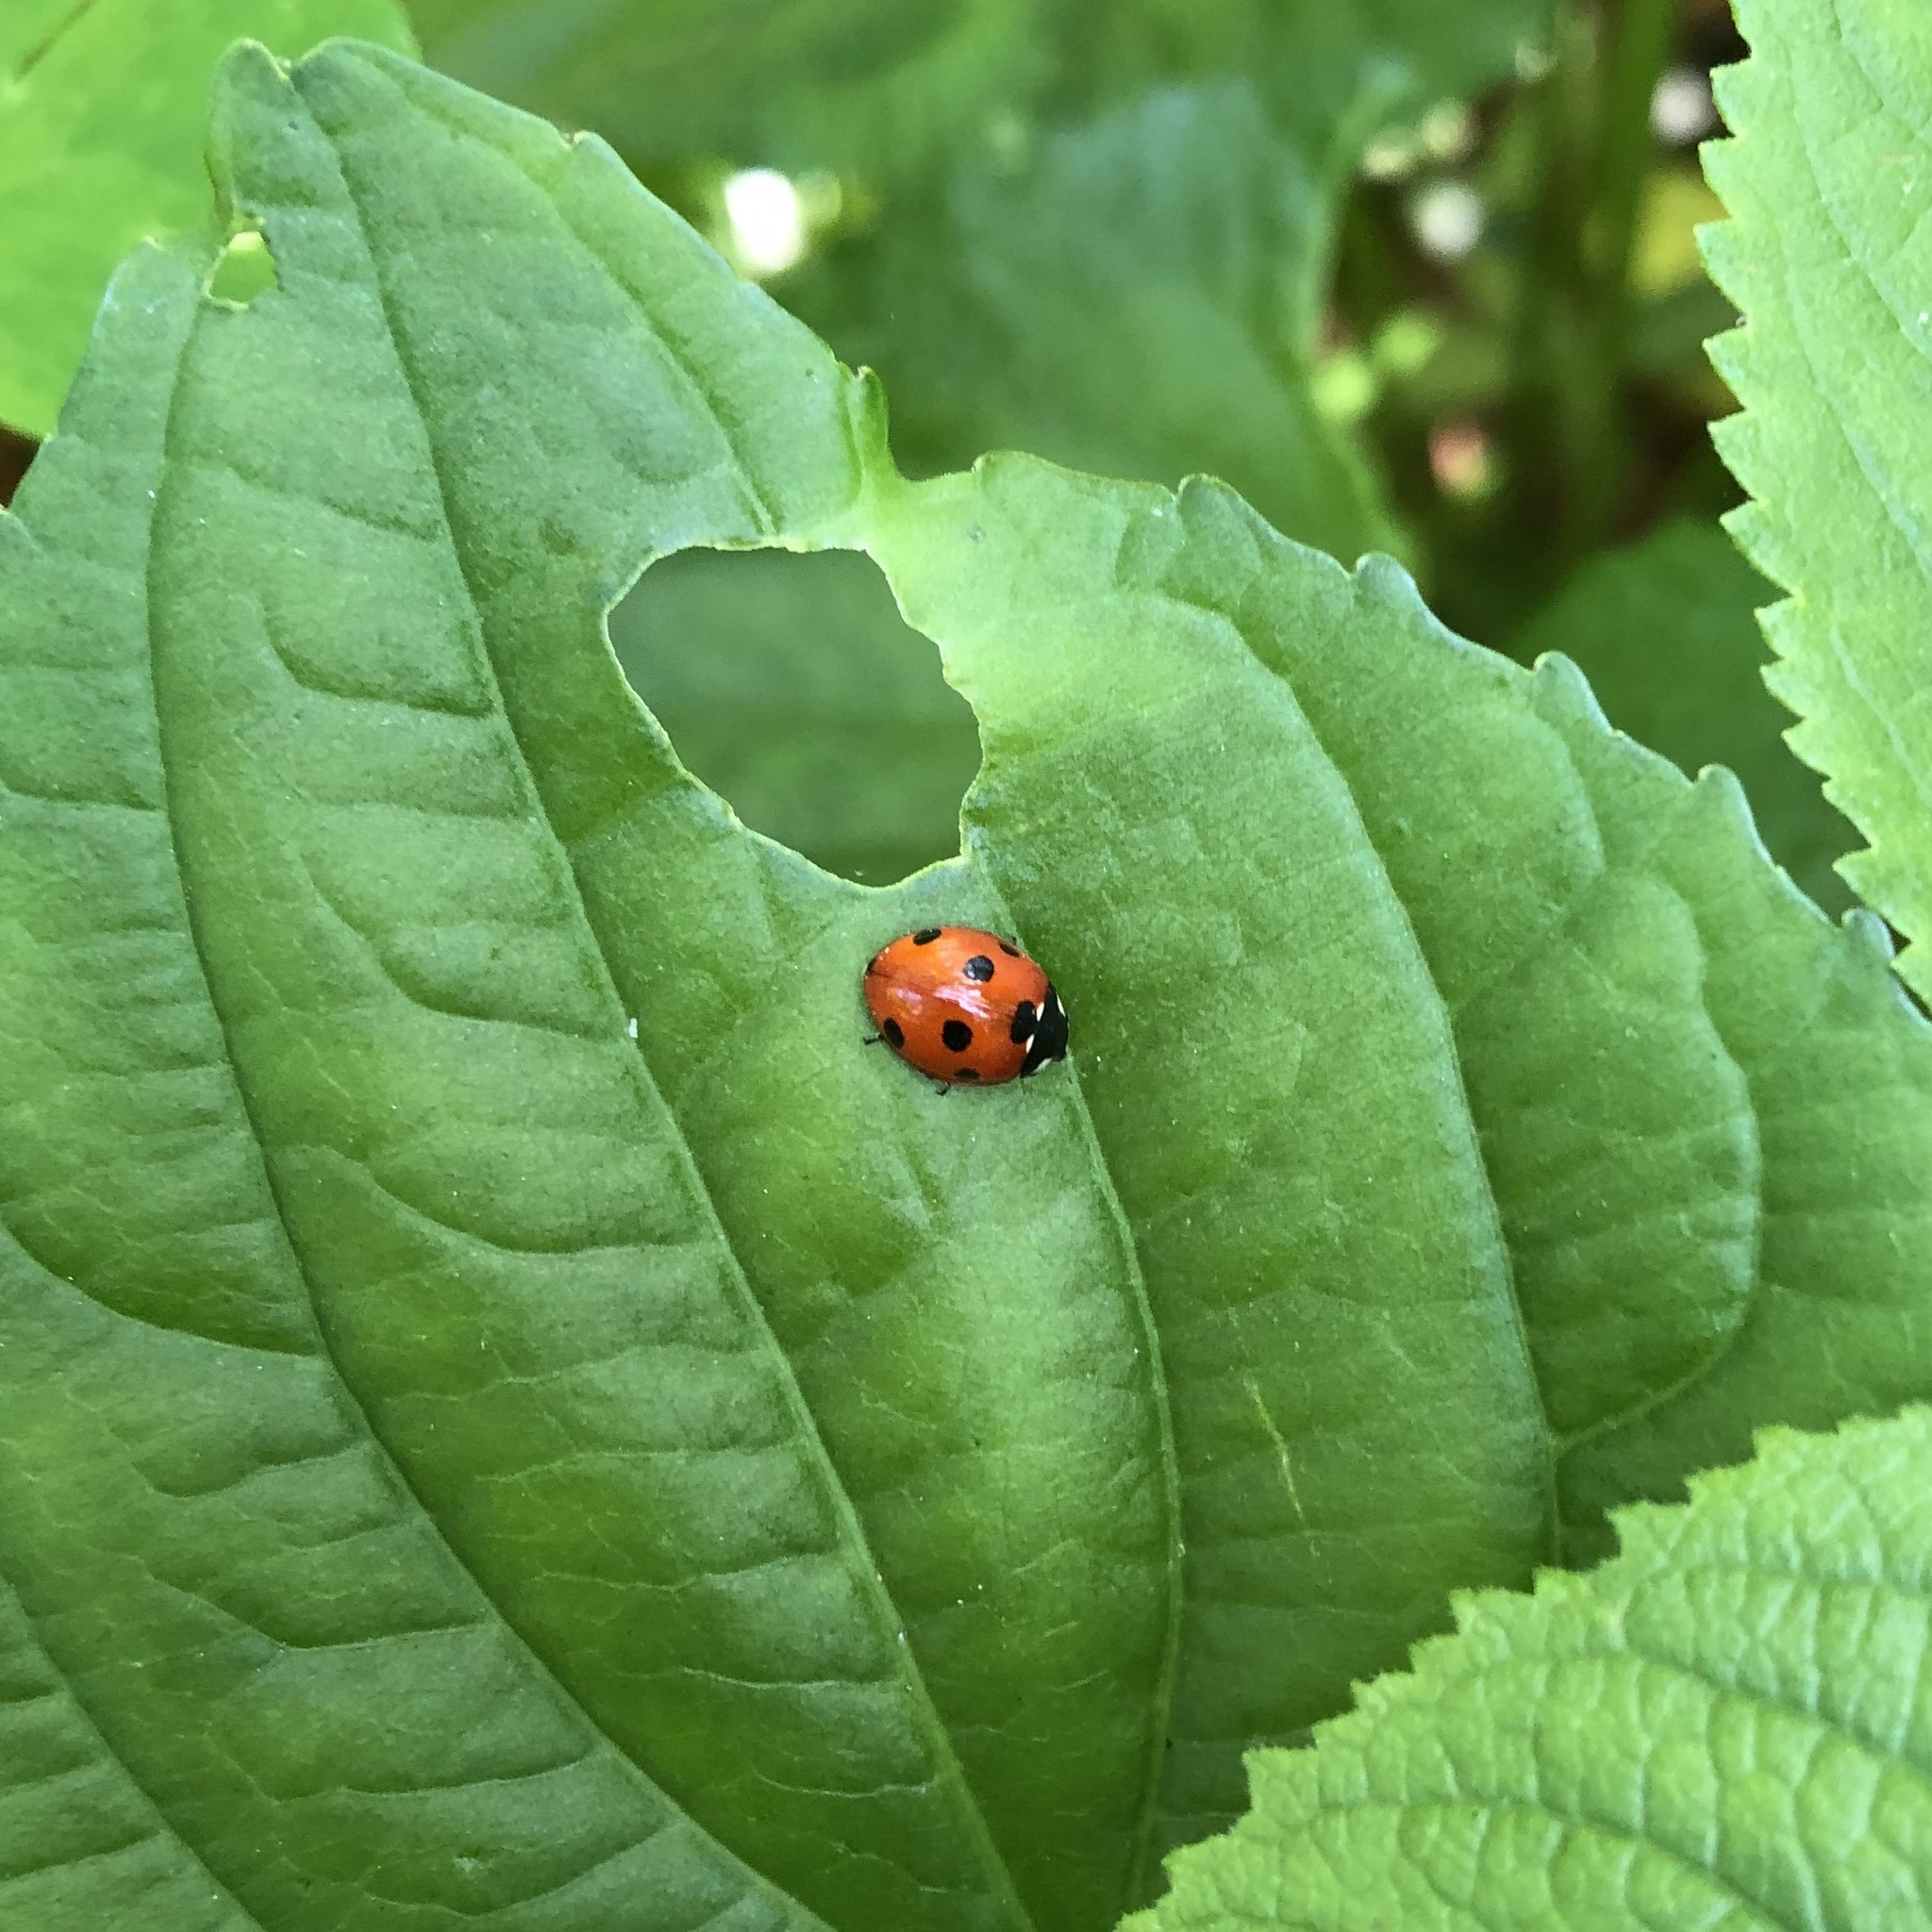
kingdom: Animalia
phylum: Arthropoda
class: Insecta
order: Coleoptera
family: Coccinellidae
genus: Coccinella
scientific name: Coccinella septempunctata
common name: Sevenspotted lady beetle
